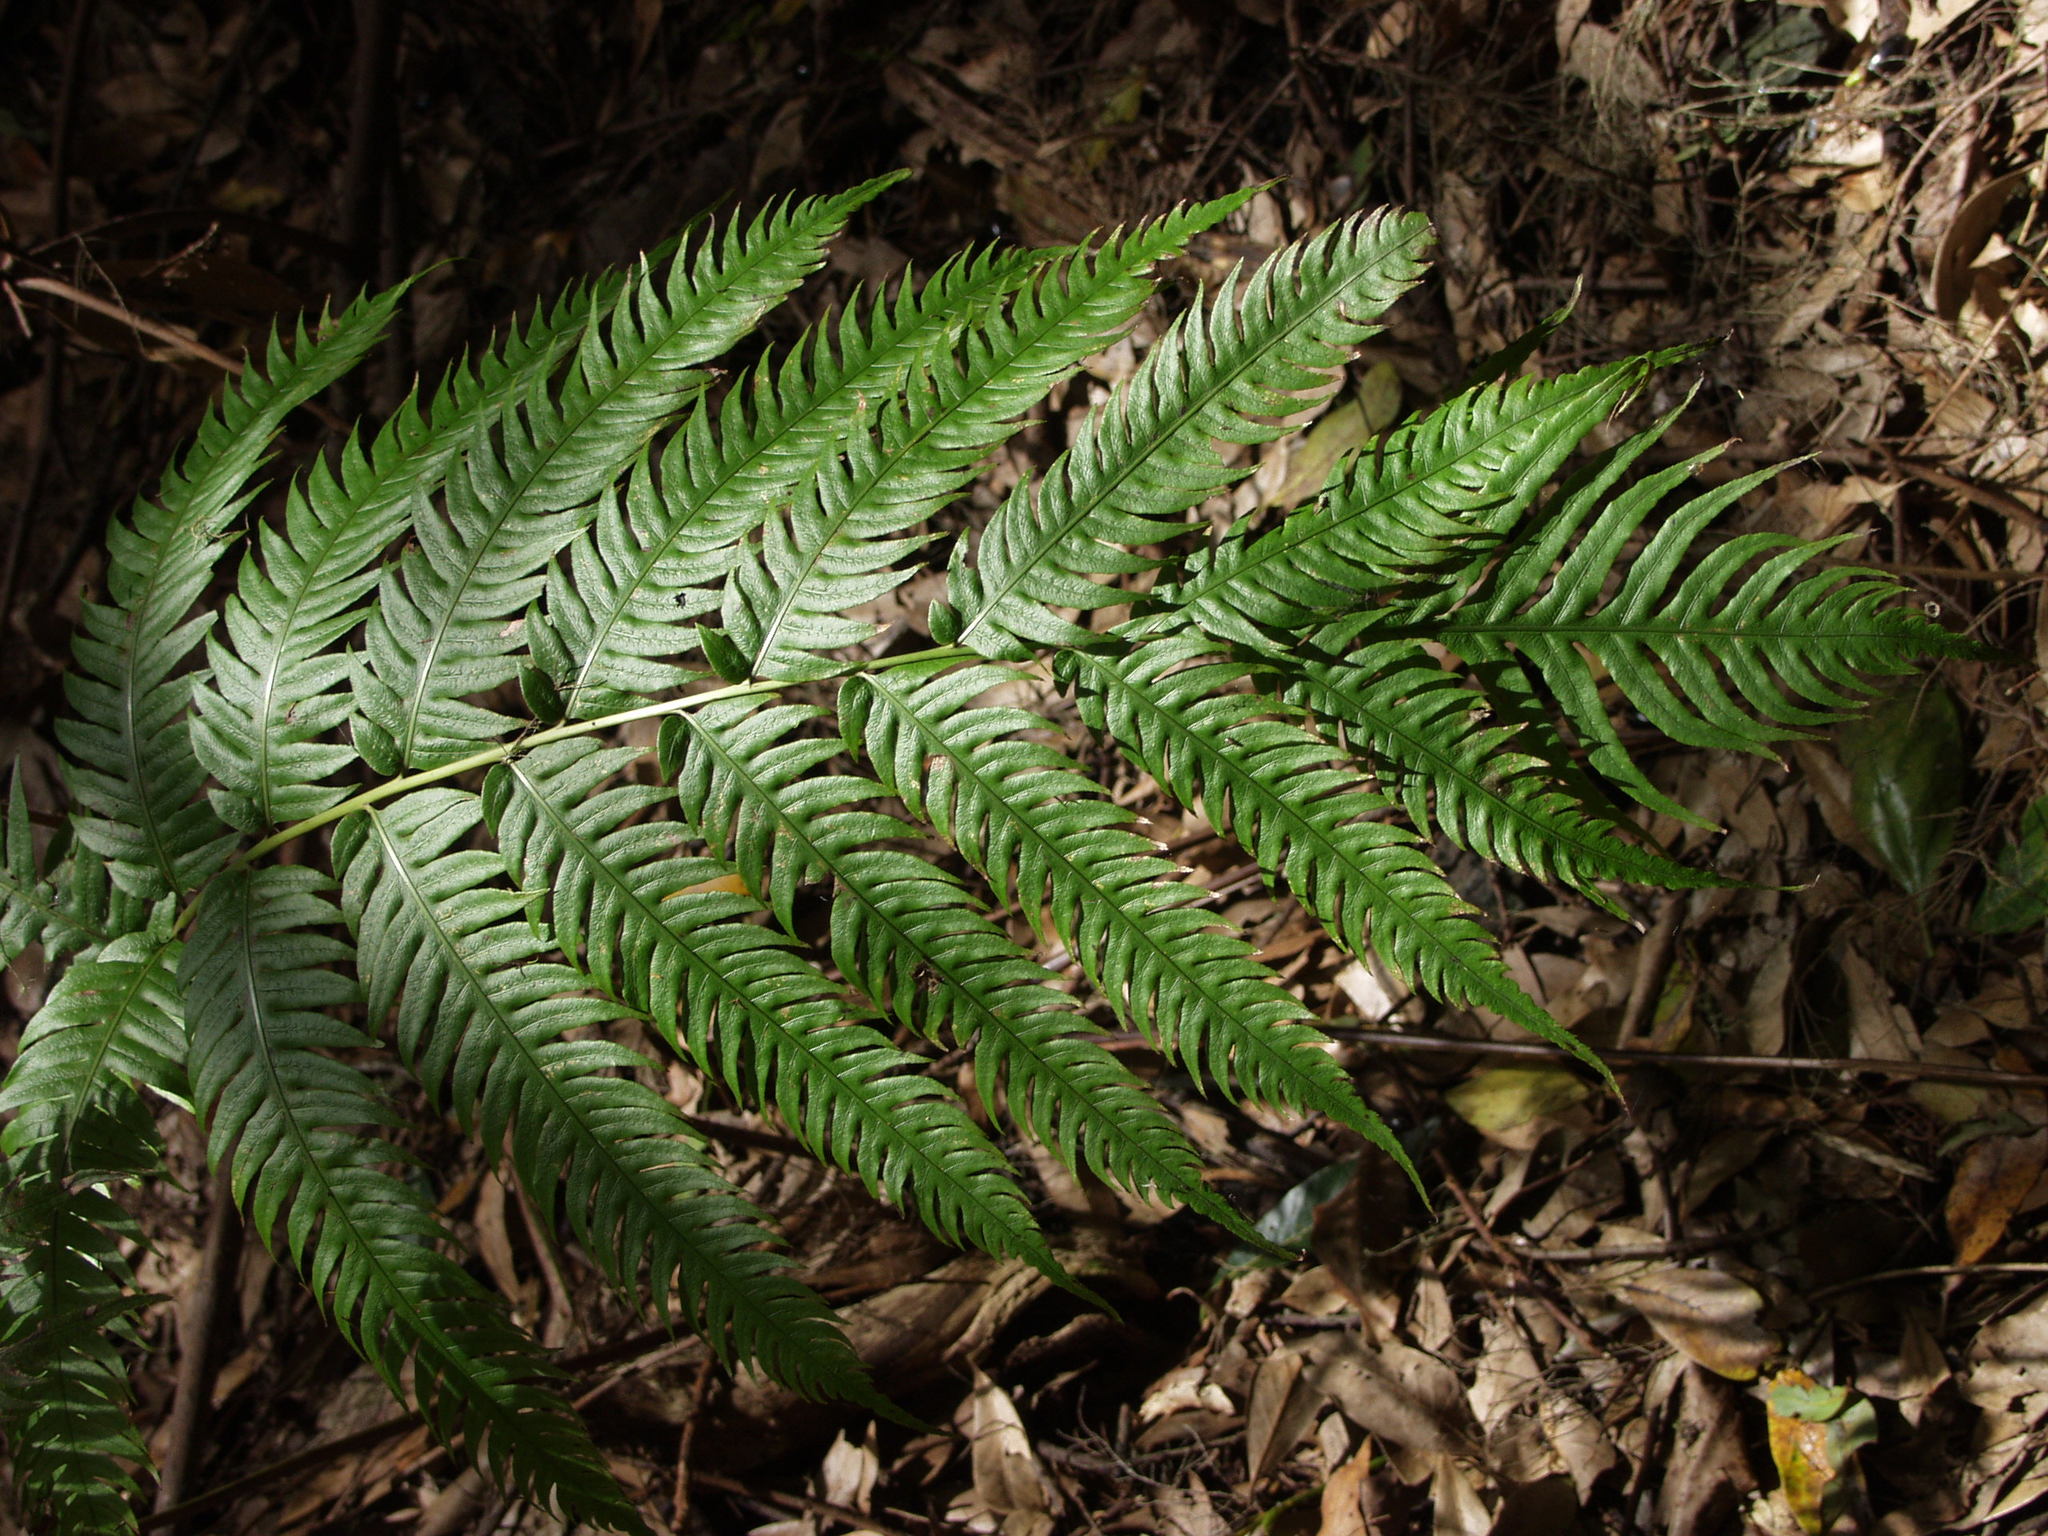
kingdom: Plantae
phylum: Tracheophyta
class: Polypodiopsida
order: Polypodiales
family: Blechnaceae
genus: Woodwardia
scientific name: Woodwardia radicans
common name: Rooting chainfern
